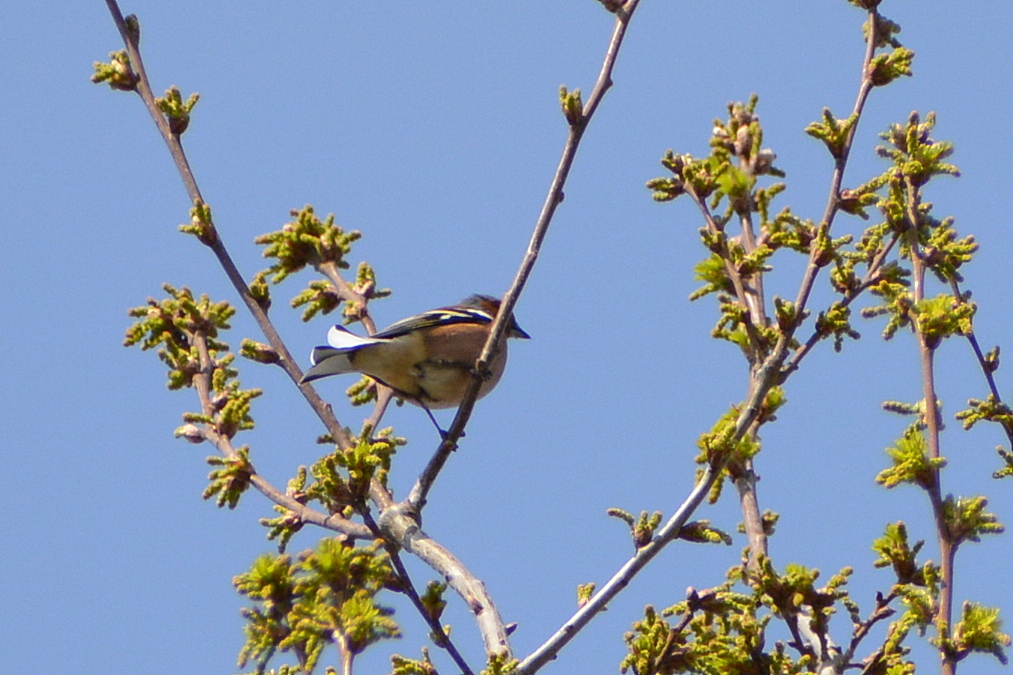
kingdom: Animalia
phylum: Chordata
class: Aves
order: Passeriformes
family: Fringillidae
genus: Fringilla
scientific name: Fringilla coelebs
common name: Common chaffinch
